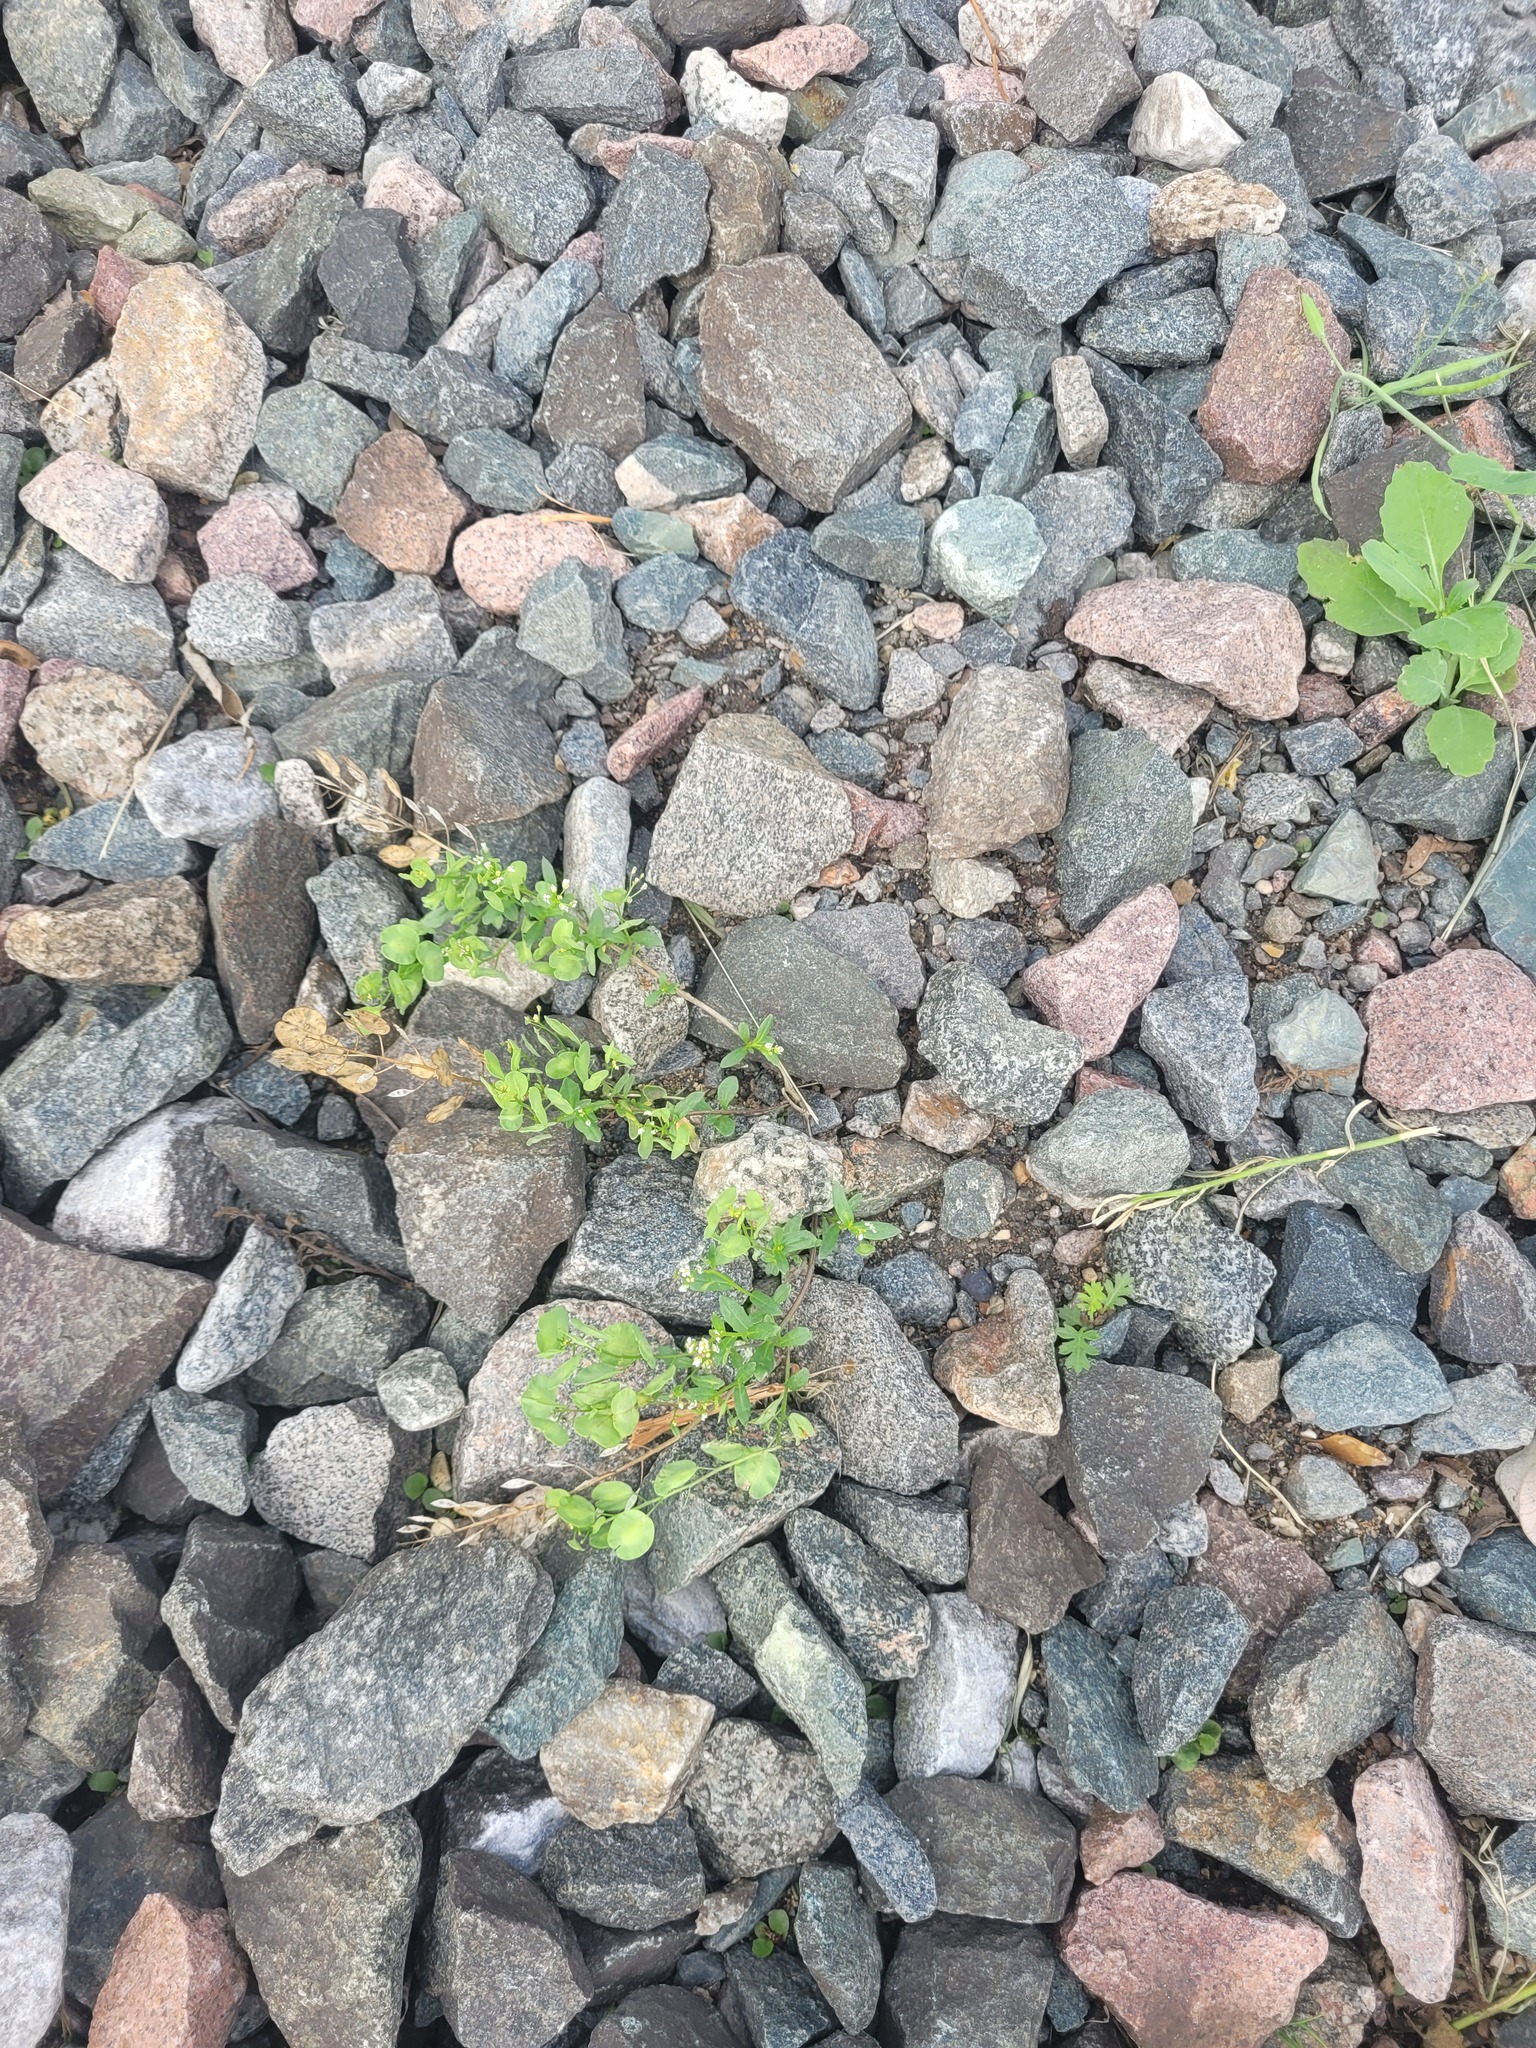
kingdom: Plantae
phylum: Tracheophyta
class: Magnoliopsida
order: Brassicales
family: Brassicaceae
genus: Thlaspi
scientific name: Thlaspi arvense
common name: Field pennycress
